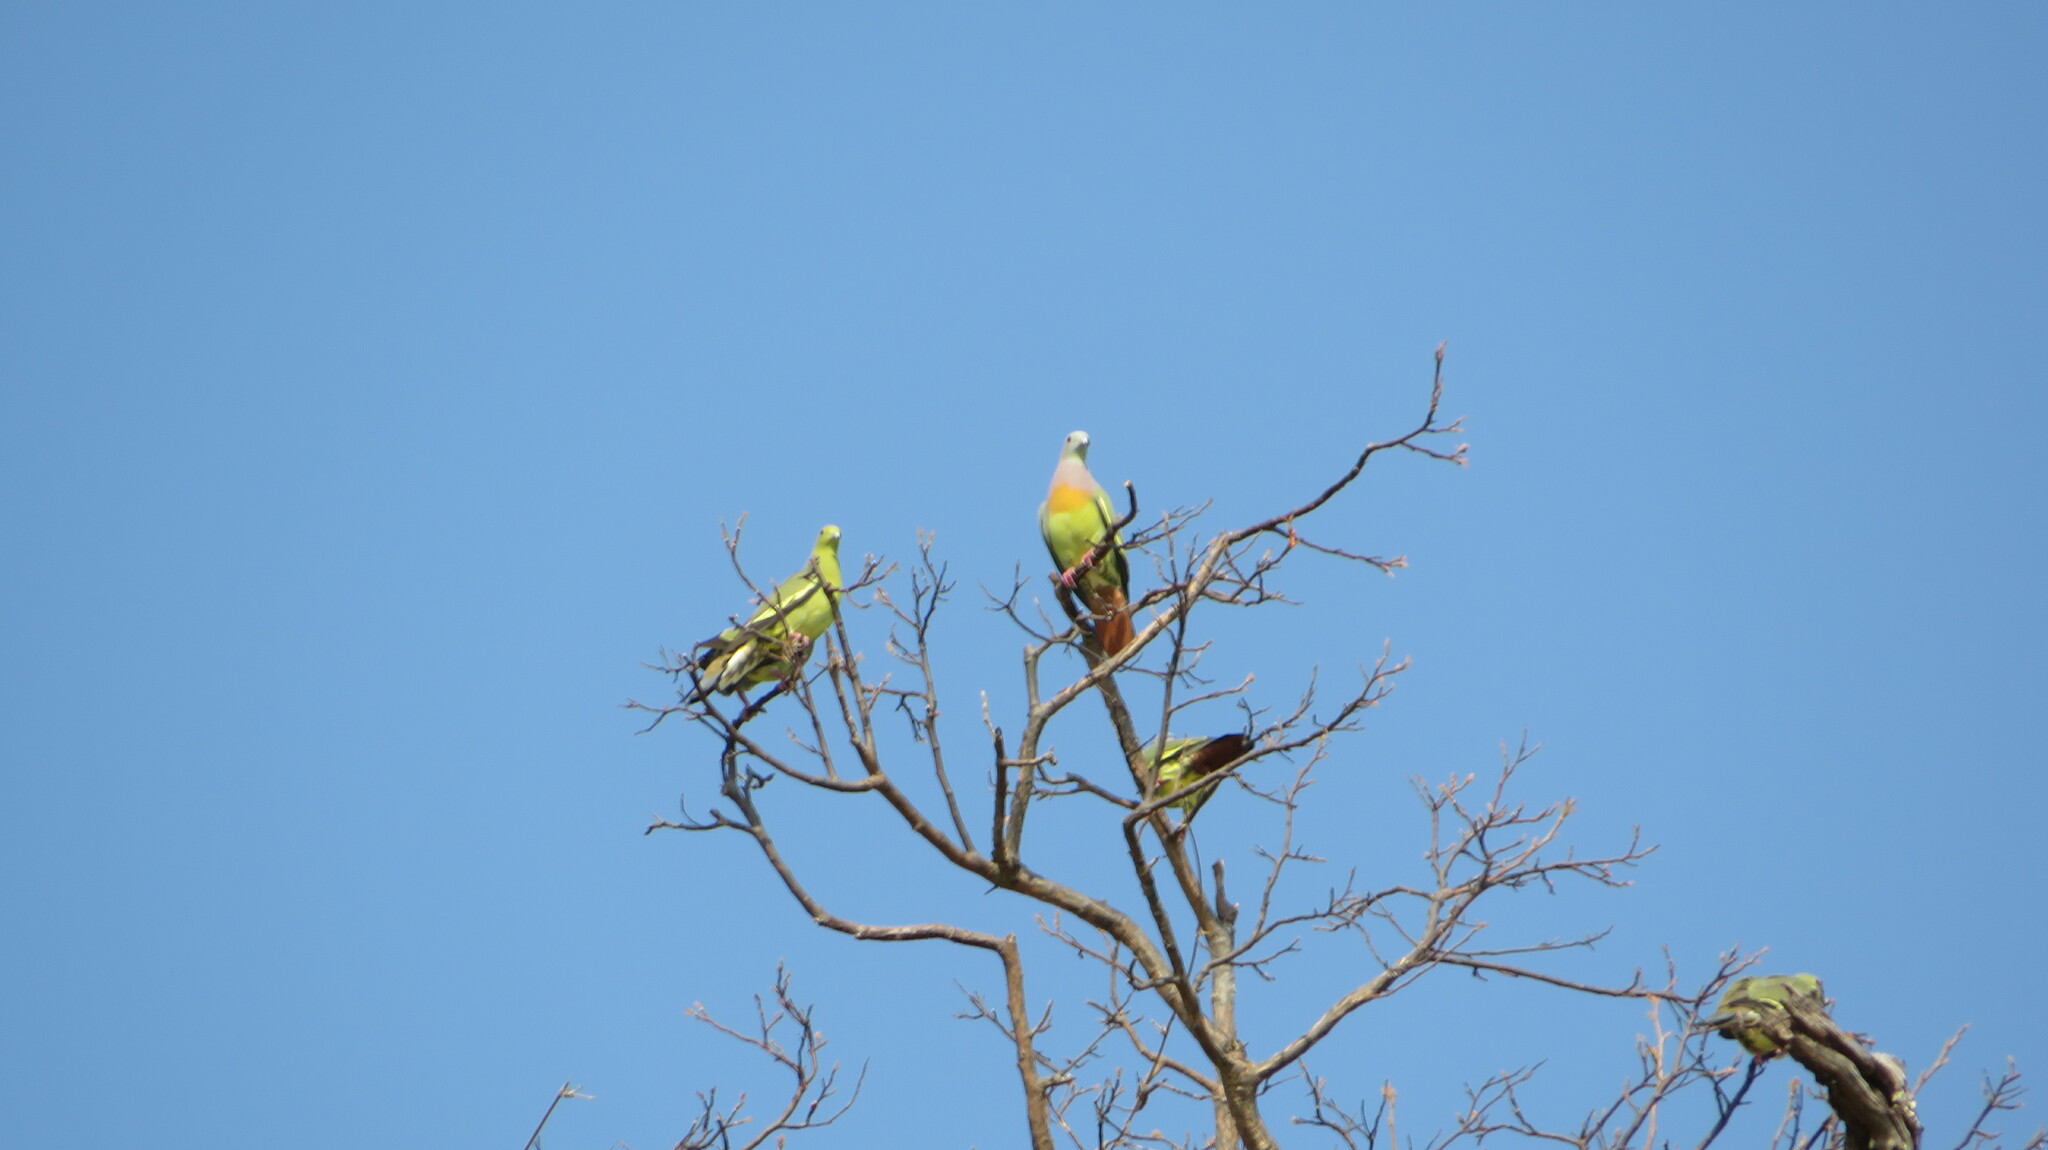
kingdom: Animalia
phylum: Chordata
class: Aves
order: Columbiformes
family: Columbidae
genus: Treron
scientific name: Treron vernans
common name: Pink-necked green pigeon
